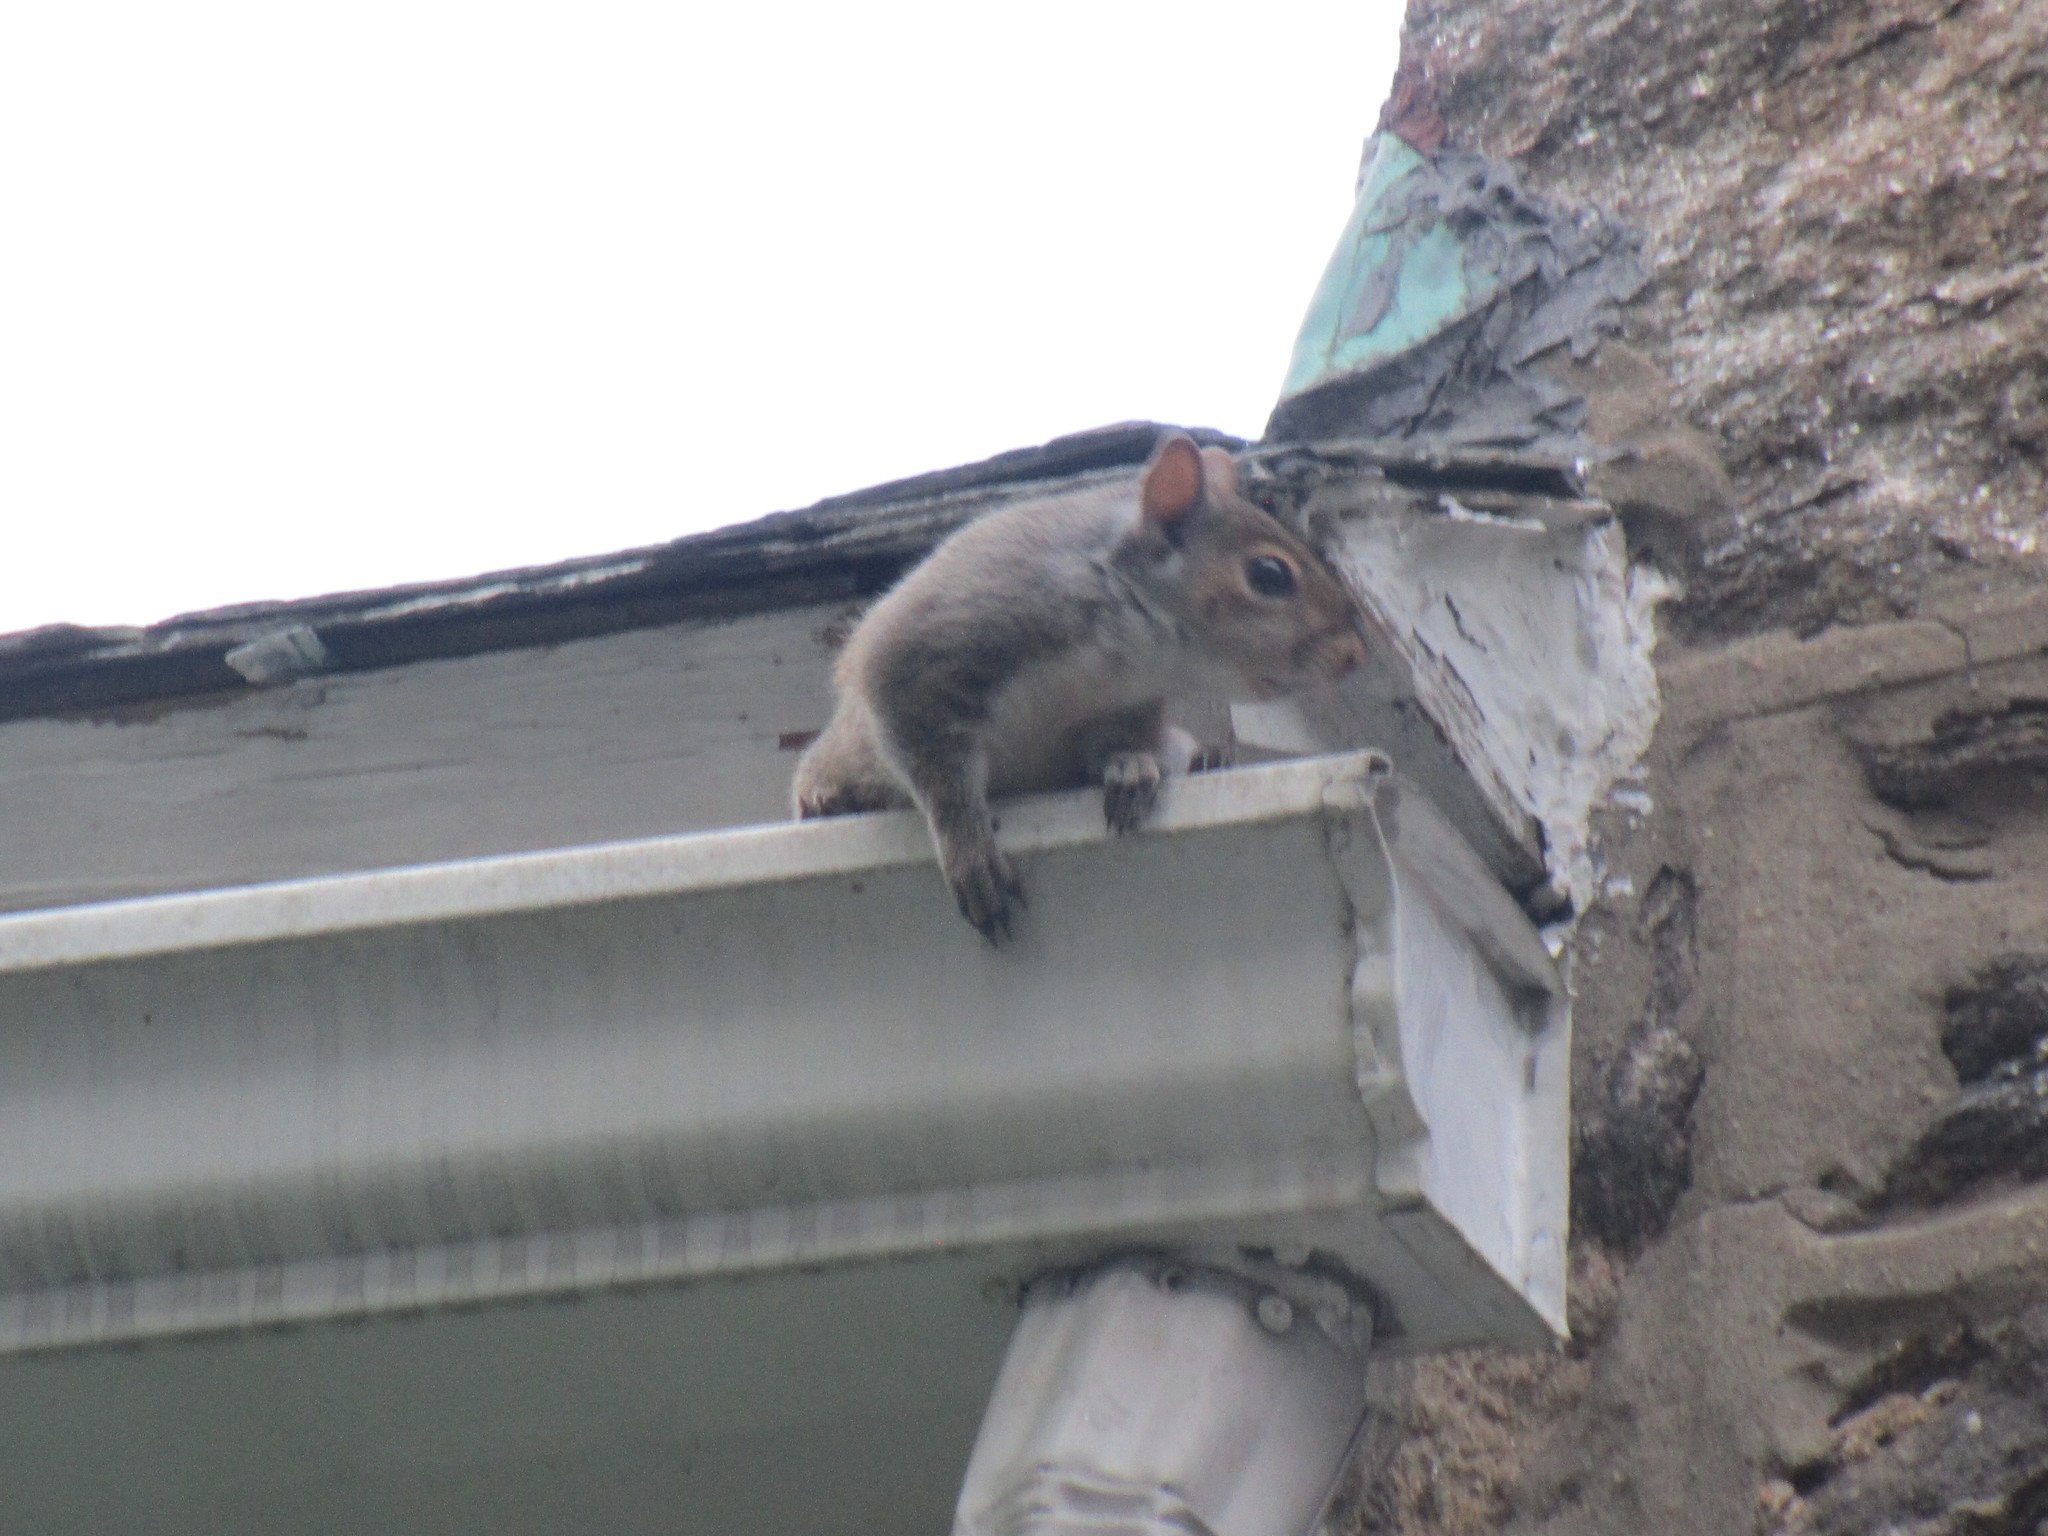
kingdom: Animalia
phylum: Chordata
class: Mammalia
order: Rodentia
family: Sciuridae
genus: Sciurus
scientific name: Sciurus carolinensis
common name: Eastern gray squirrel
